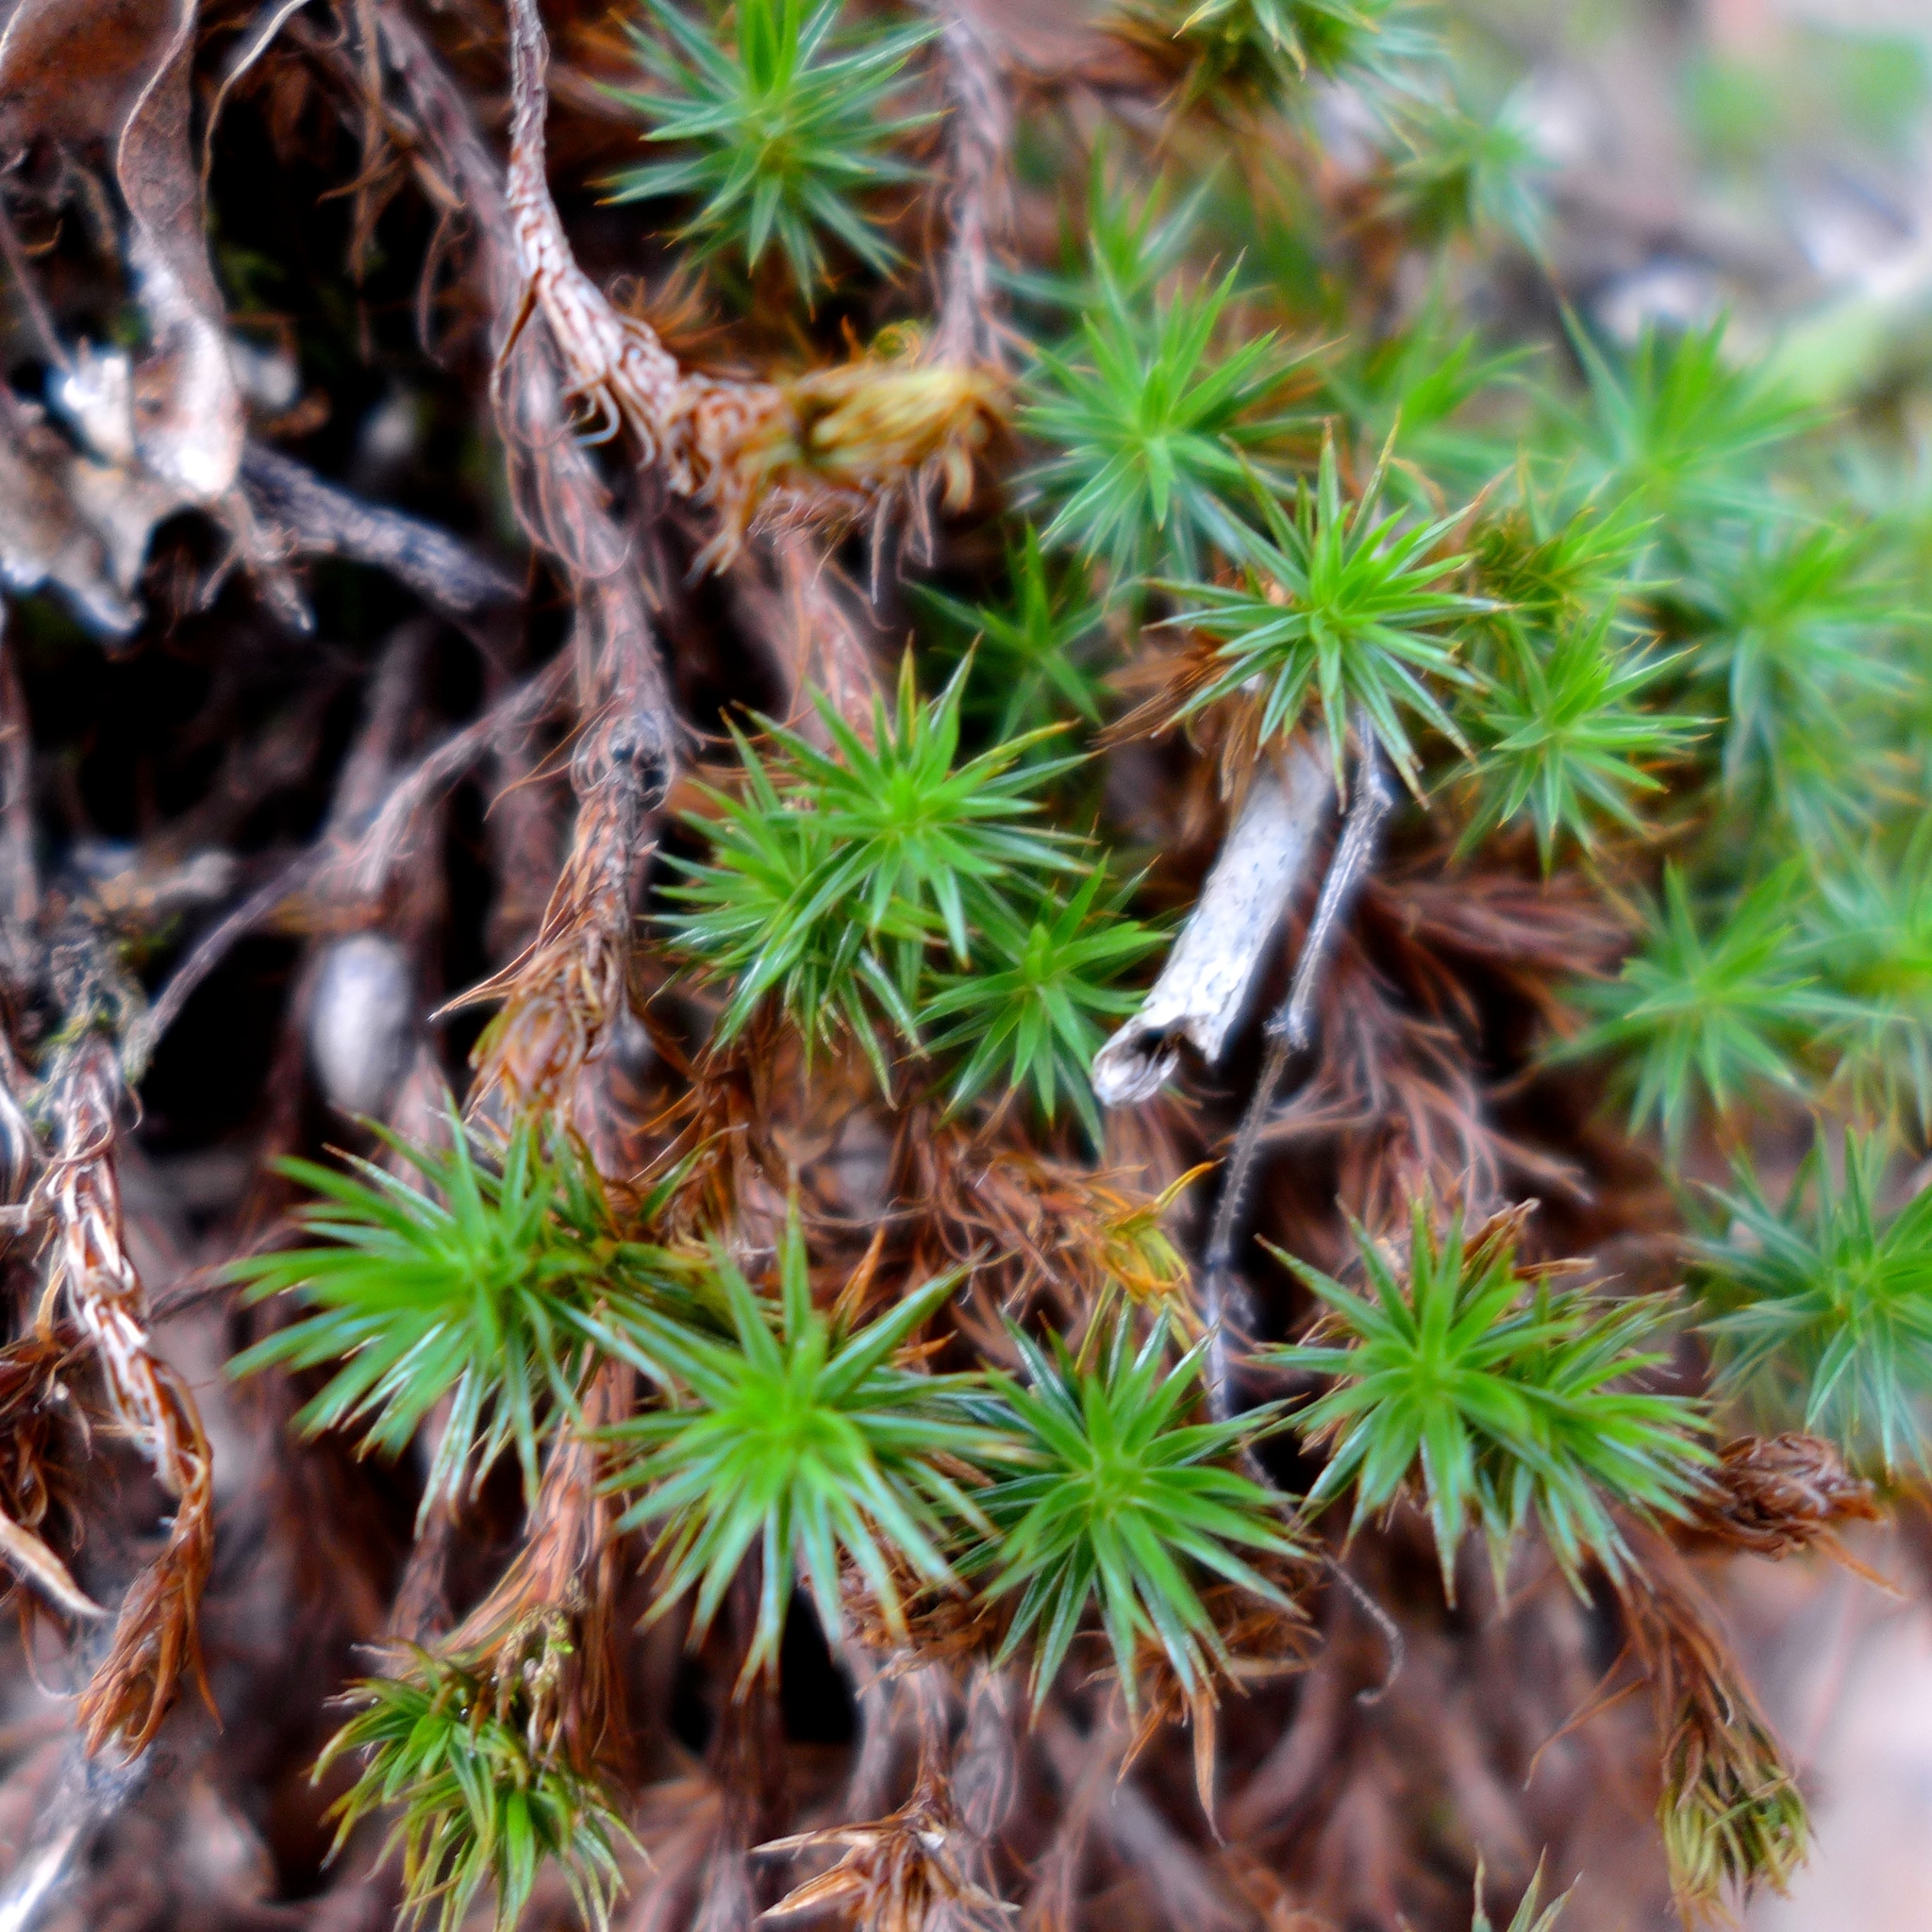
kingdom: Plantae
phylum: Bryophyta
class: Polytrichopsida
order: Polytrichales
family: Polytrichaceae
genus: Polytrichum
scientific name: Polytrichum juniperinum
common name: Juniper haircap moss
